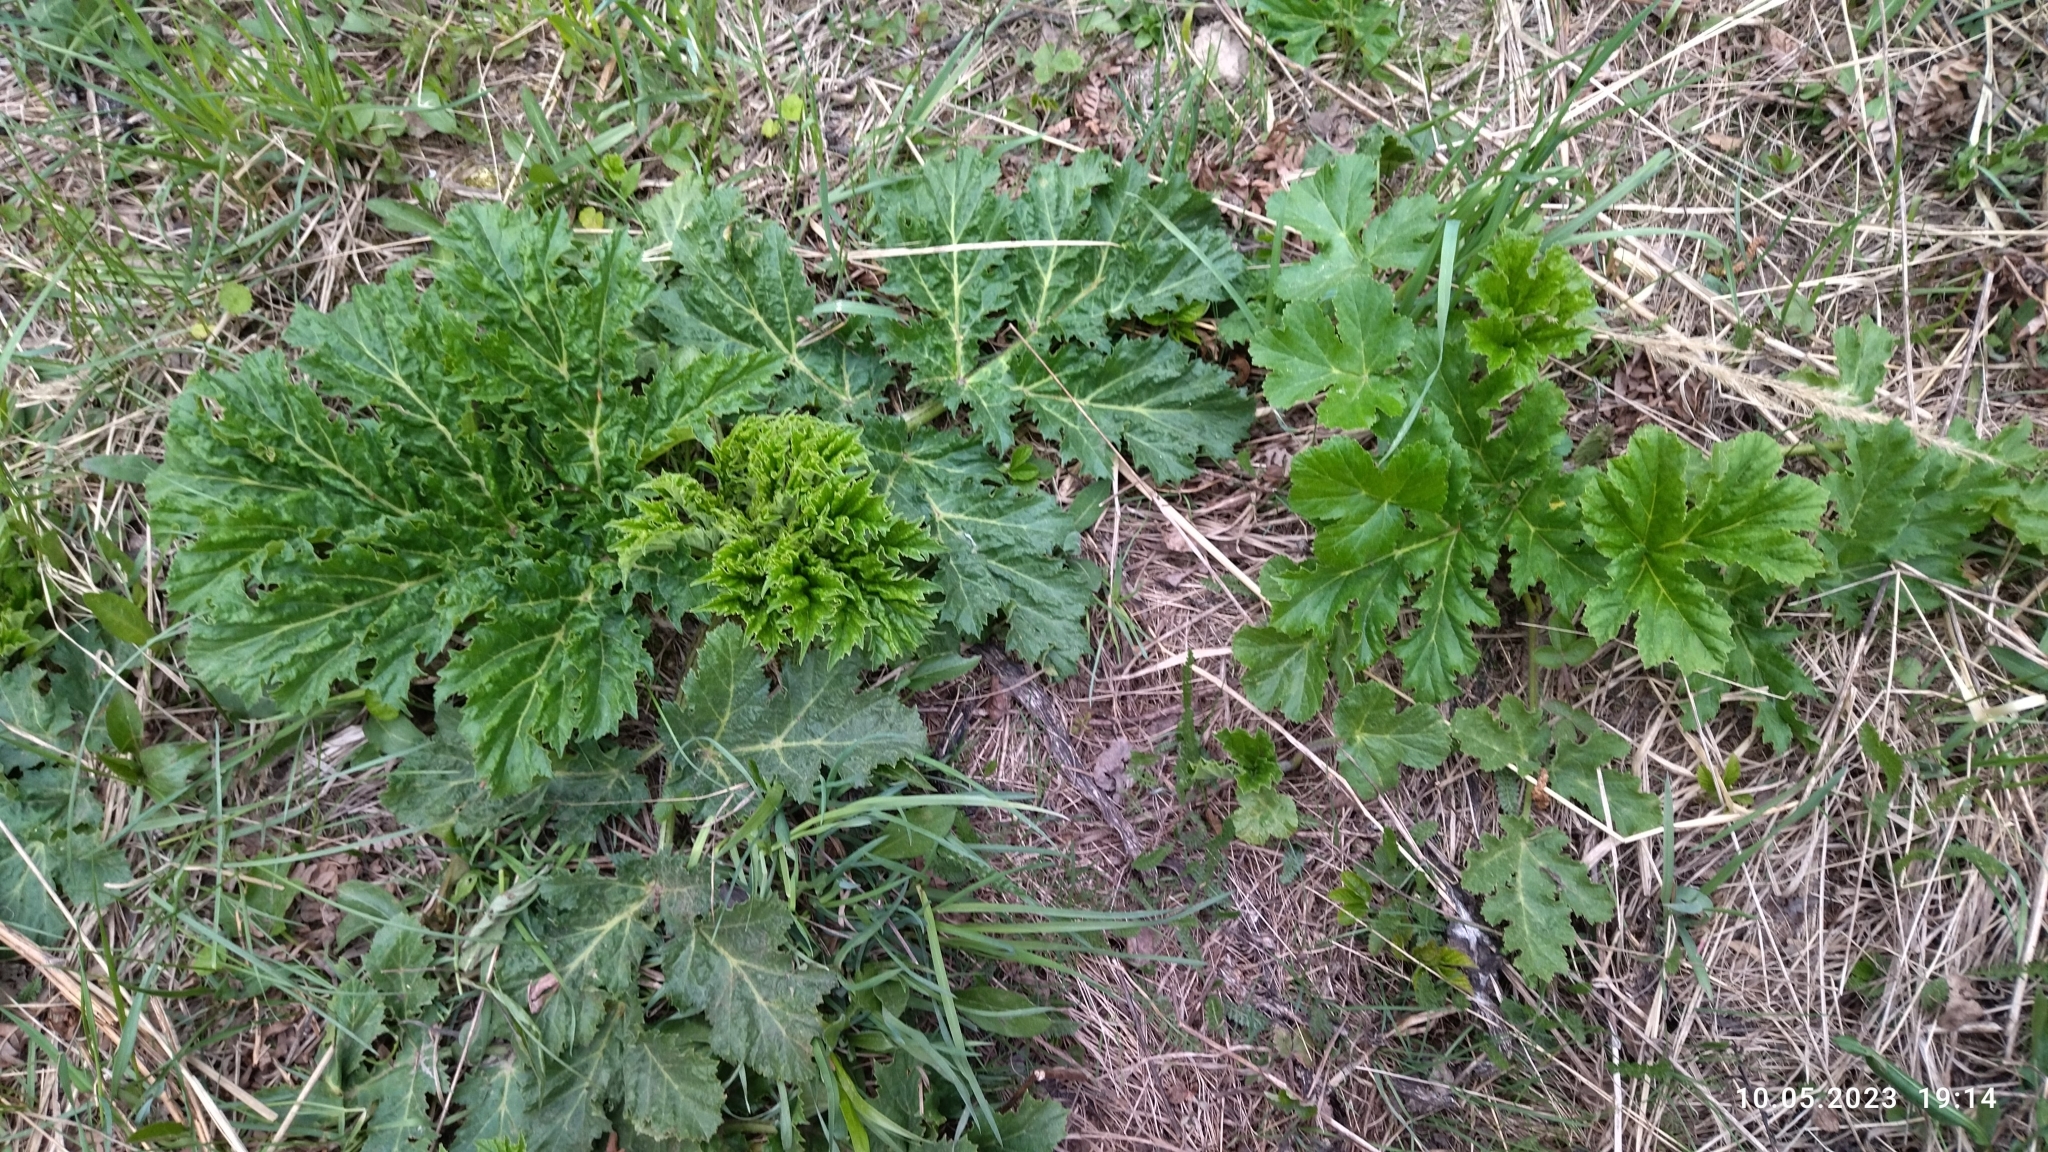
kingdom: Plantae
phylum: Tracheophyta
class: Magnoliopsida
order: Apiales
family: Apiaceae
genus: Heracleum
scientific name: Heracleum sosnowskyi
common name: Sosnowsky's hogweed
